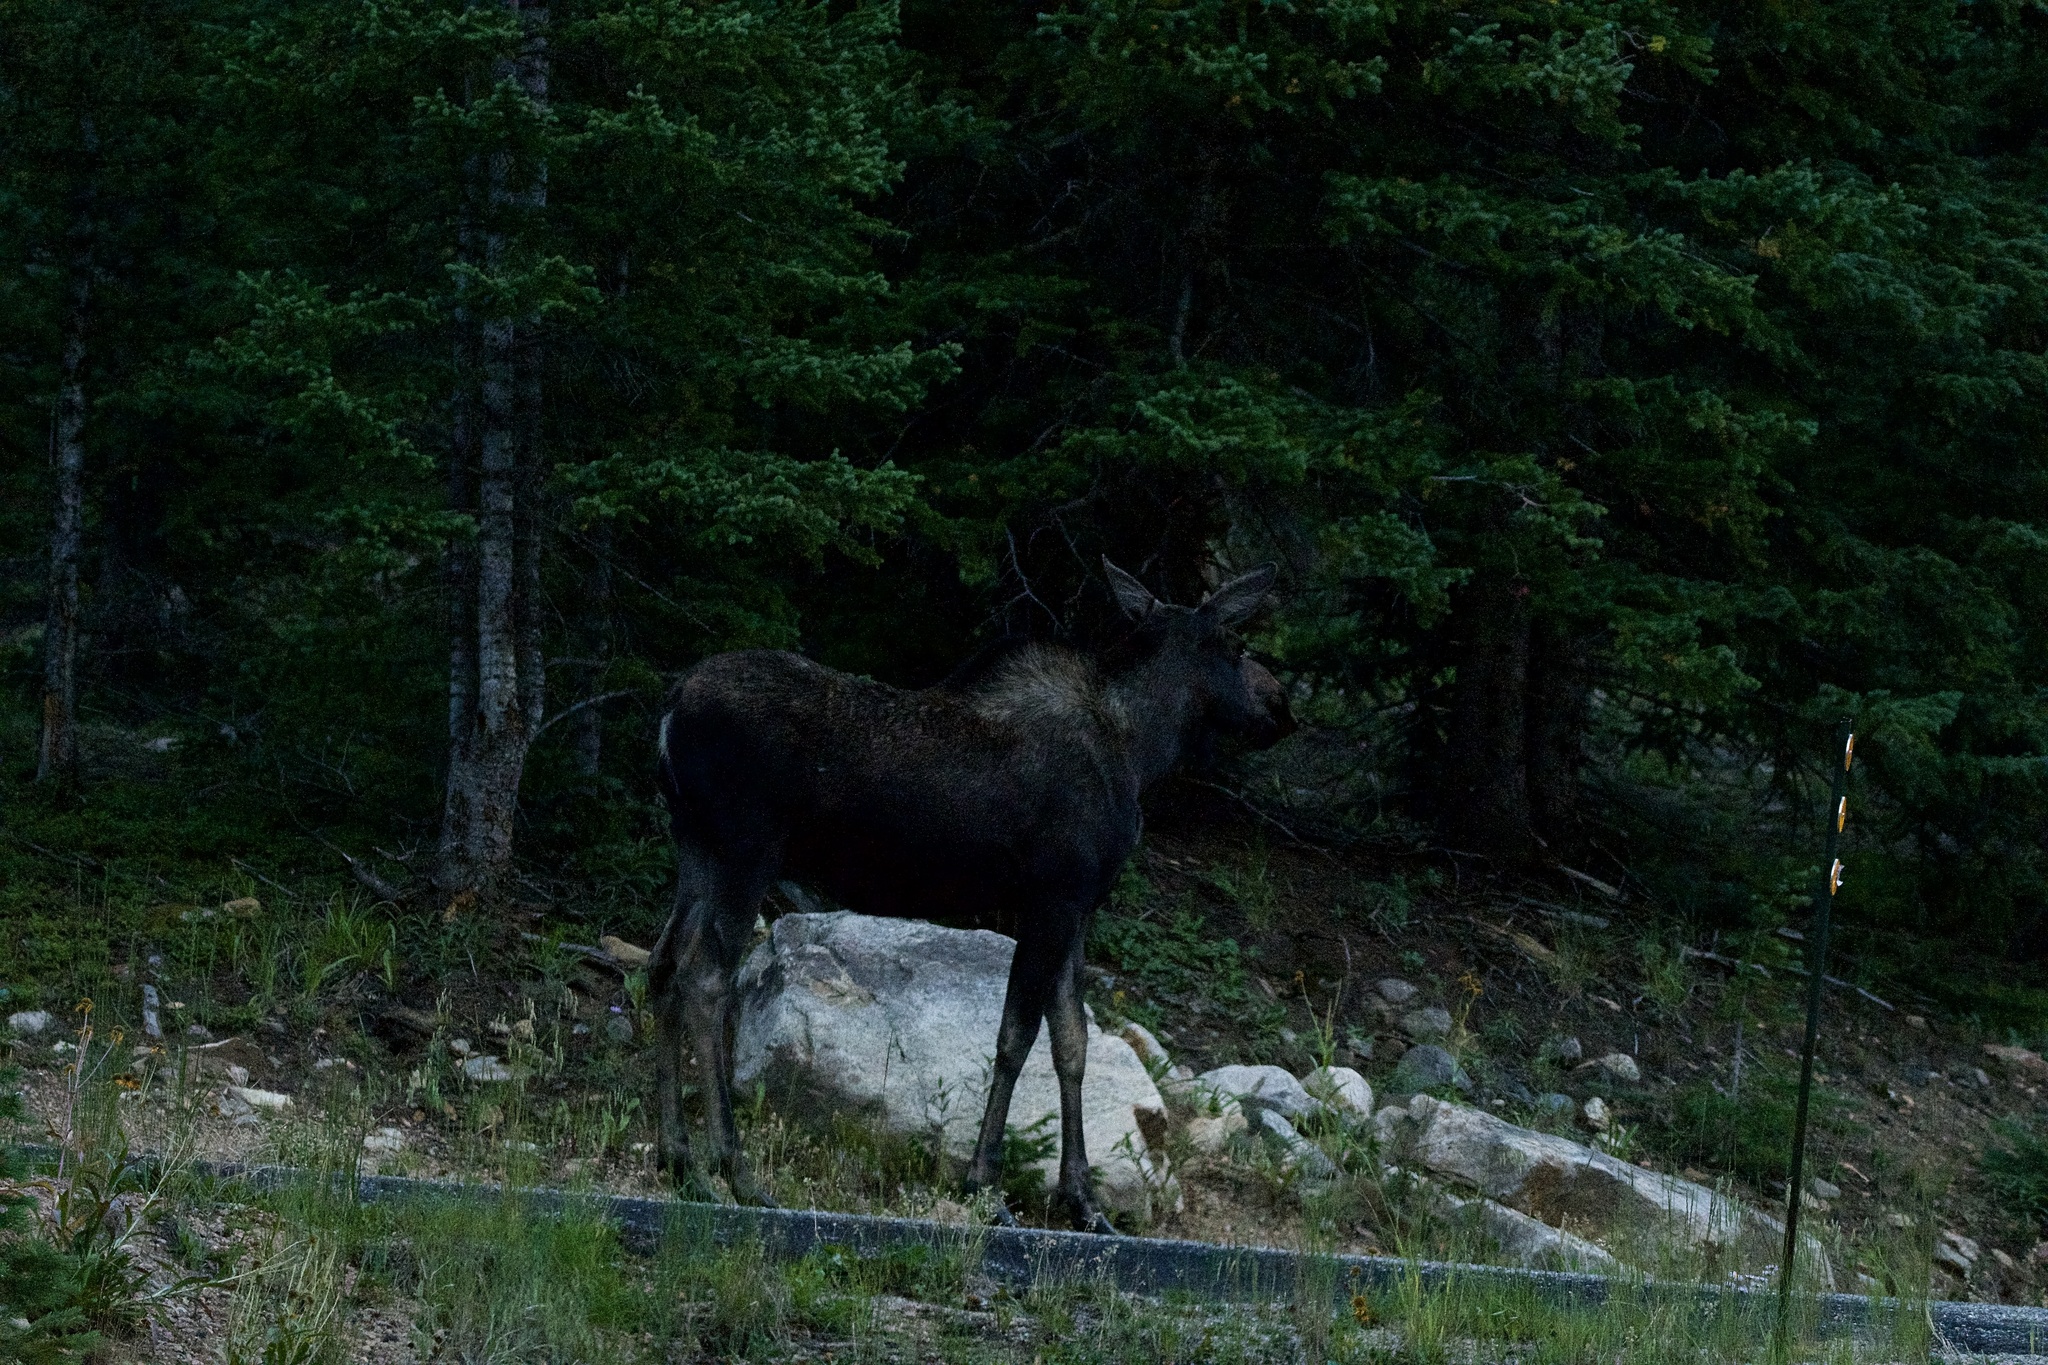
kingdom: Animalia
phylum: Chordata
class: Mammalia
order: Artiodactyla
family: Cervidae
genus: Alces
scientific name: Alces alces
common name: Moose
